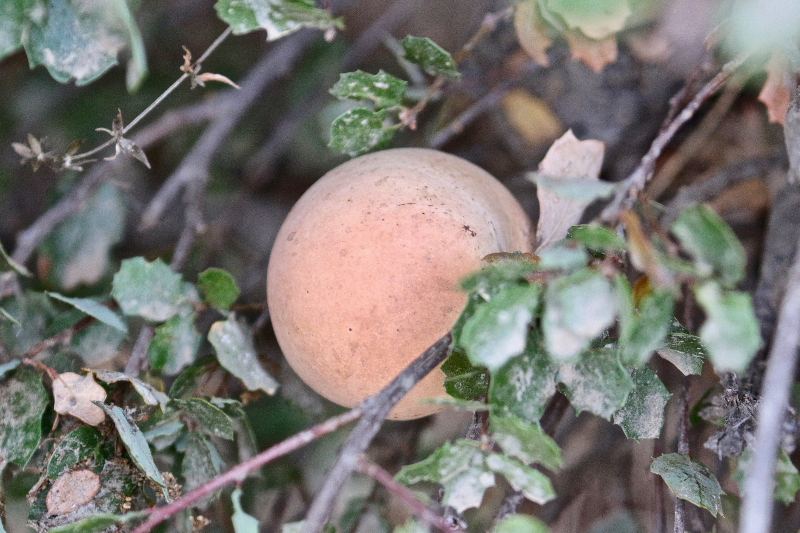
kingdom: Animalia
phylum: Arthropoda
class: Insecta
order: Hymenoptera
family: Cynipidae
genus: Andricus
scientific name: Andricus quercuscalifornicus
